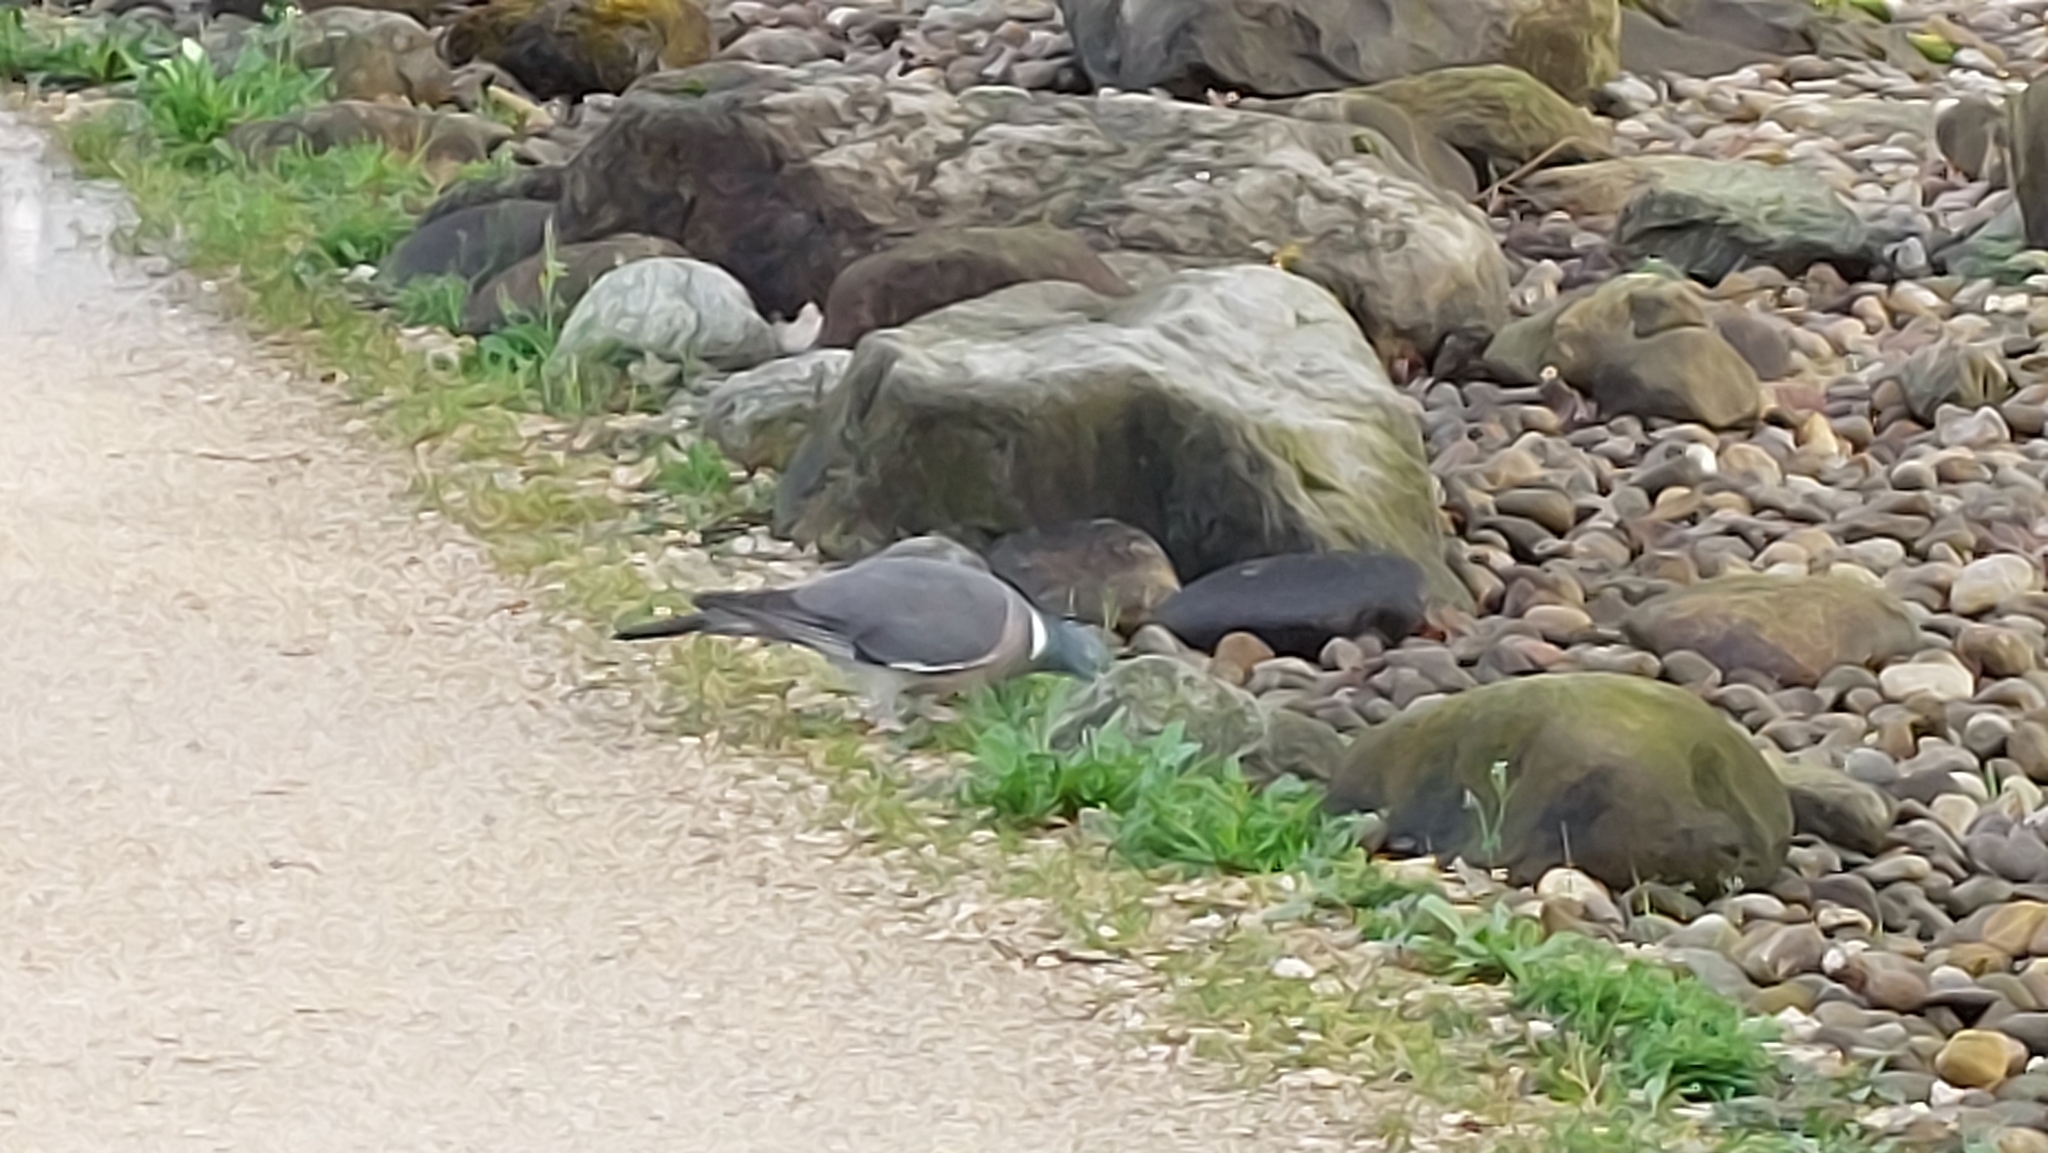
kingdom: Animalia
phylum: Chordata
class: Aves
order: Columbiformes
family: Columbidae
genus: Columba
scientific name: Columba palumbus
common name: Common wood pigeon
